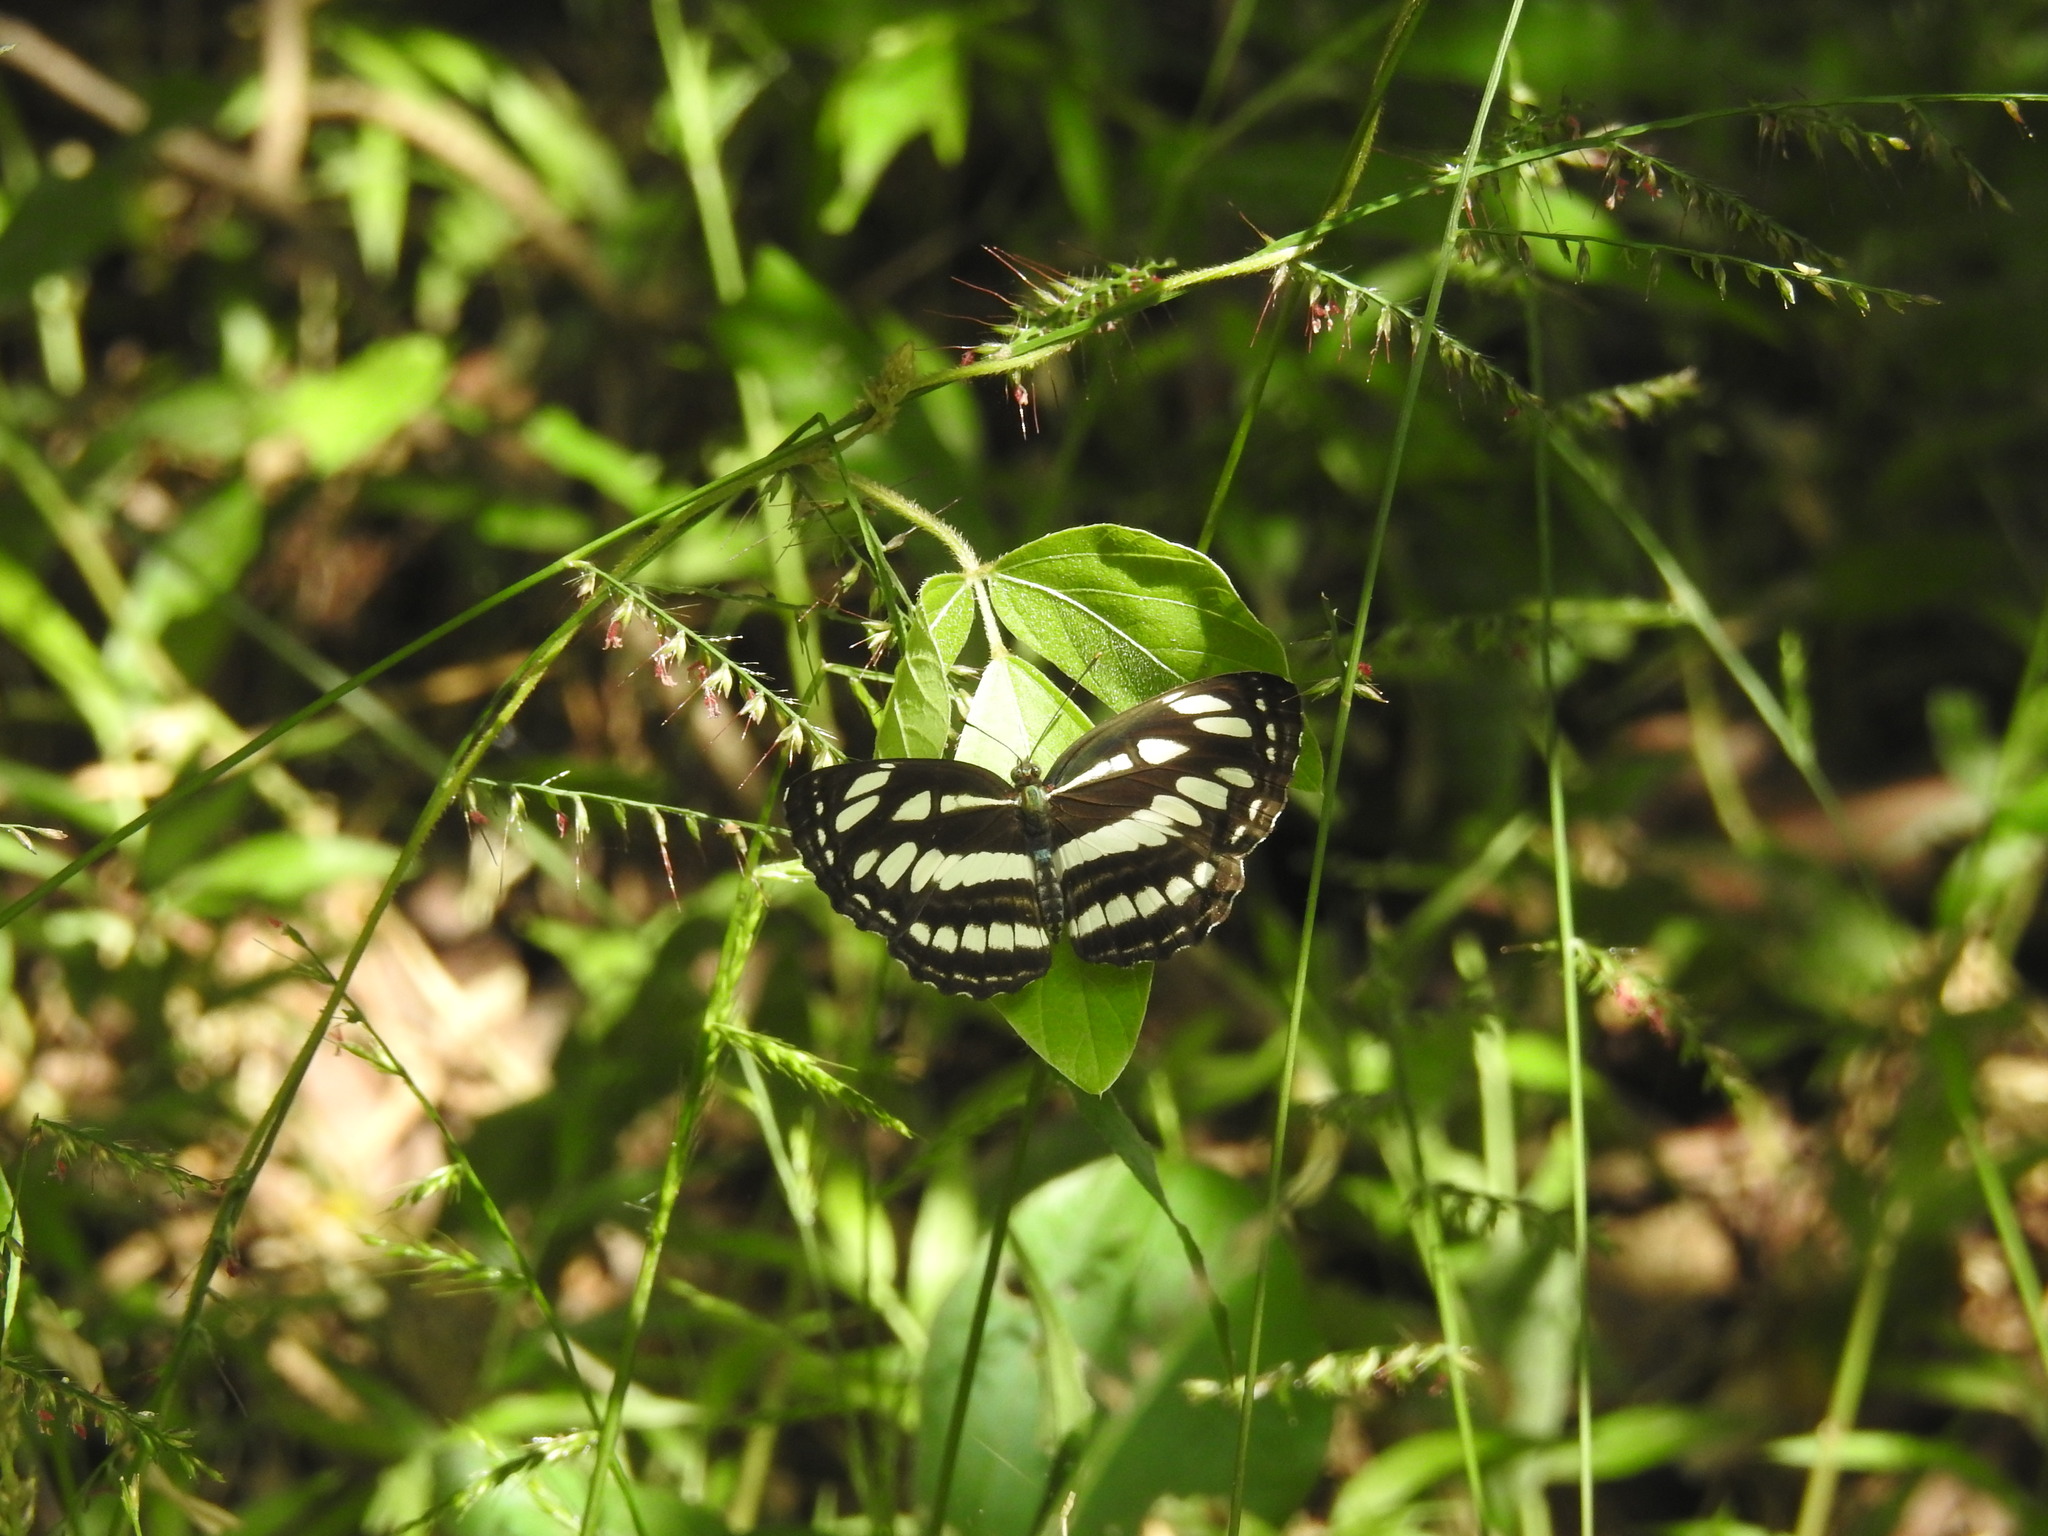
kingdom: Animalia
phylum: Arthropoda
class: Insecta
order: Lepidoptera
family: Nymphalidae
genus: Neptis
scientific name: Neptis hylas
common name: Common sailer
